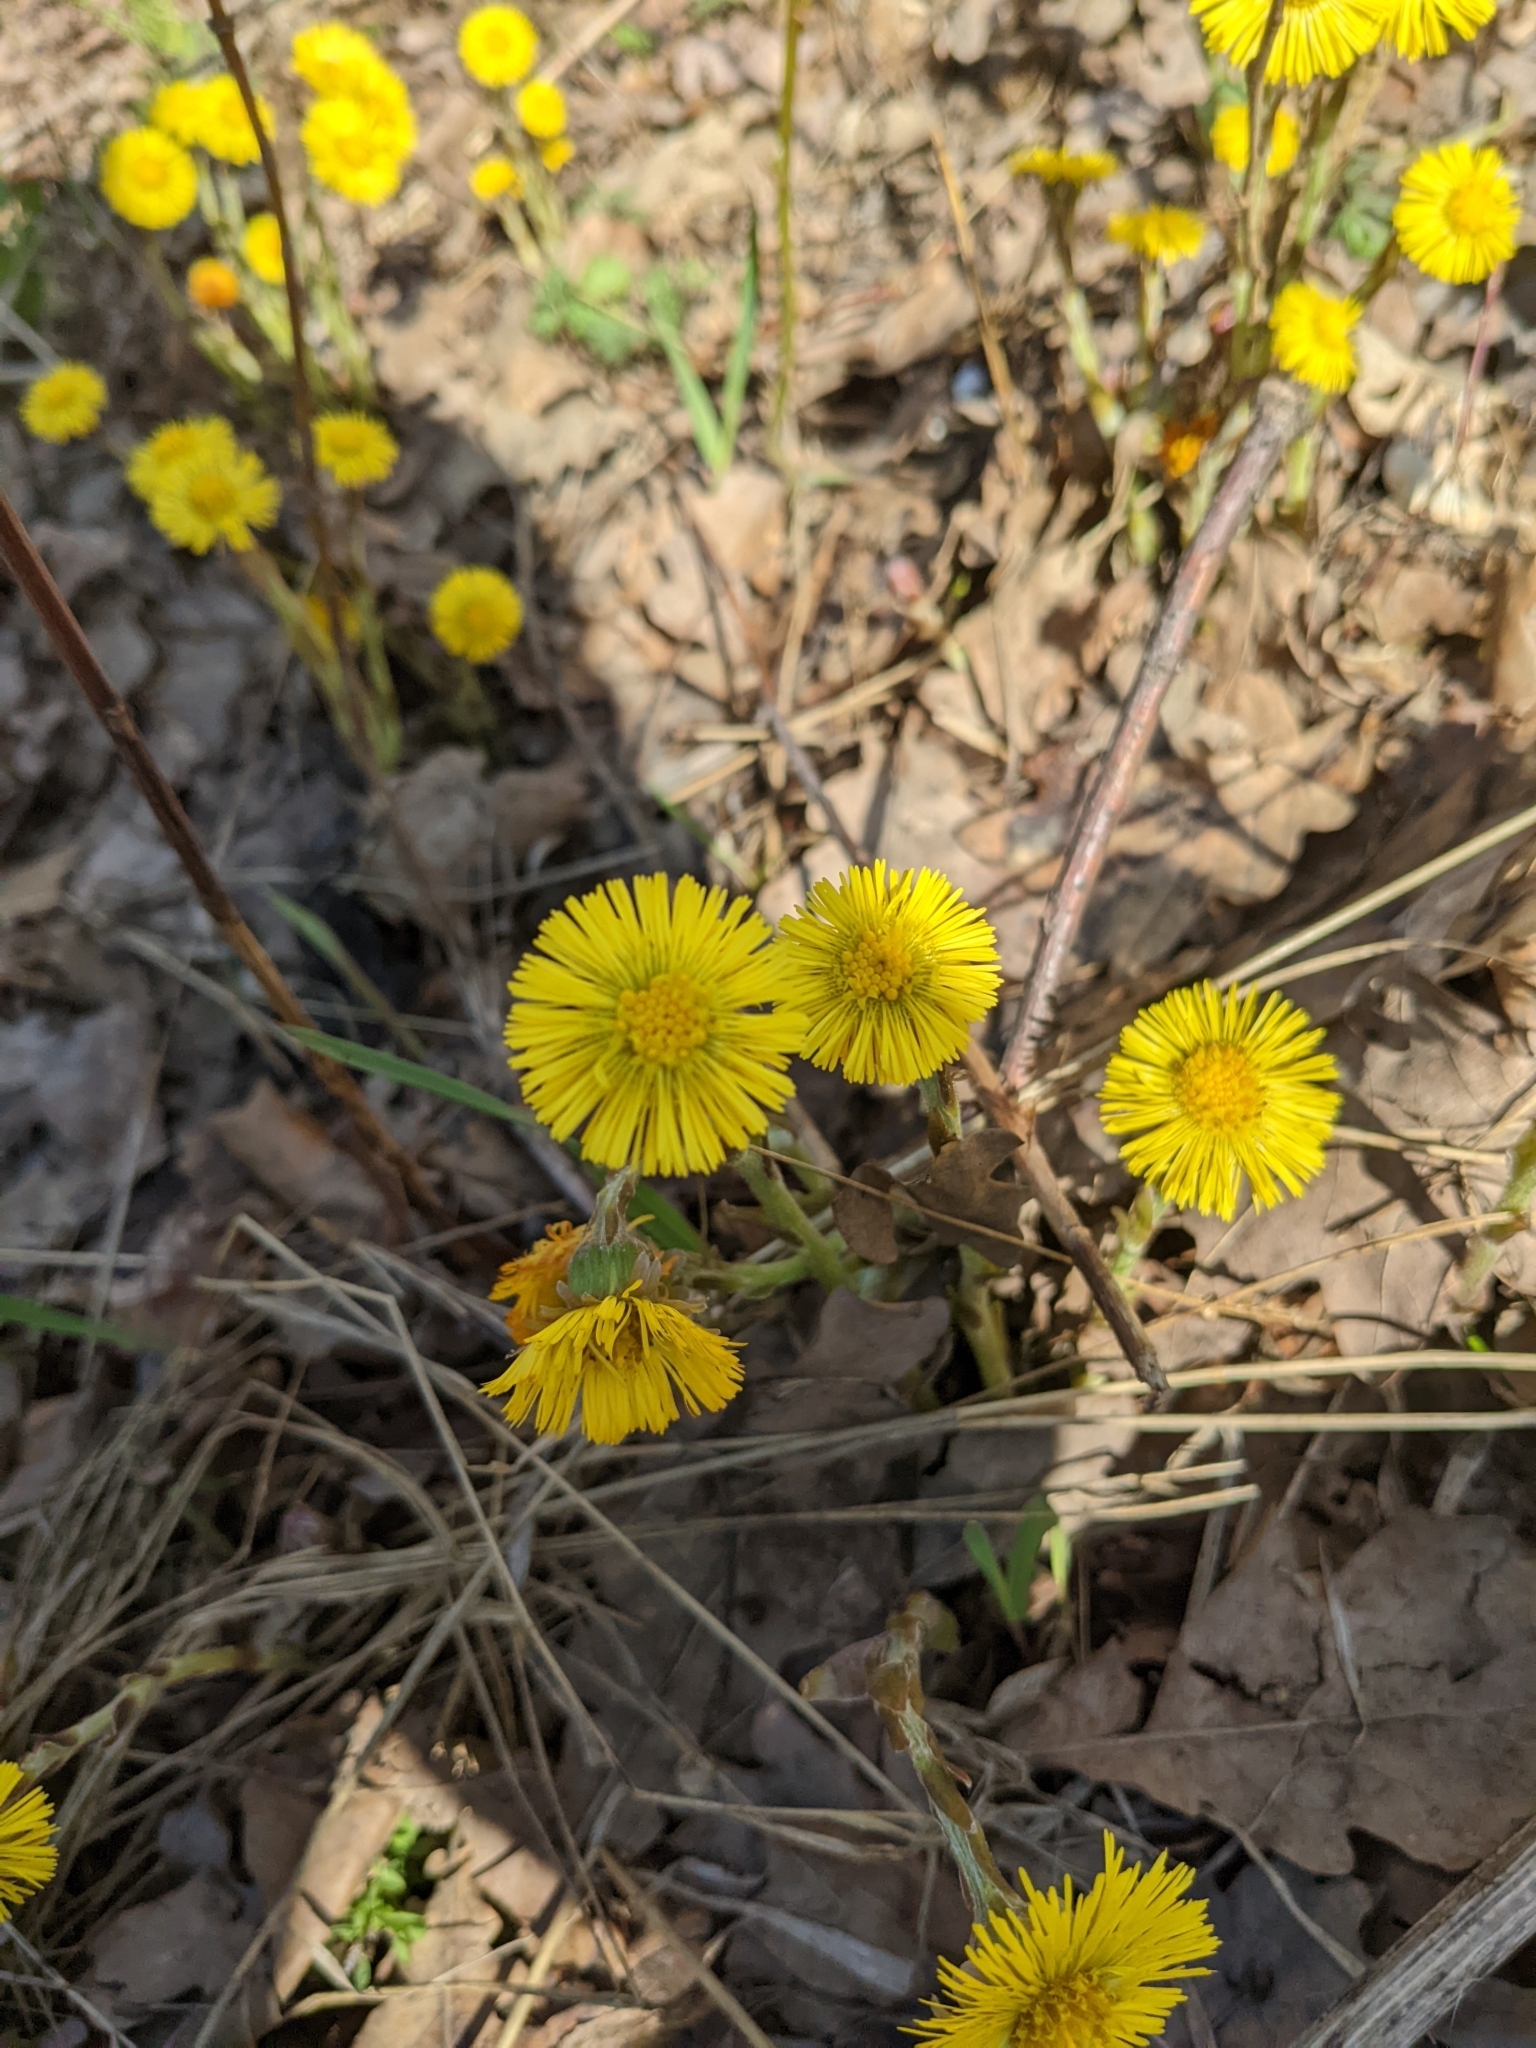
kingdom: Plantae
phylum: Tracheophyta
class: Magnoliopsida
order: Asterales
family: Asteraceae
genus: Tussilago
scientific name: Tussilago farfara
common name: Coltsfoot
